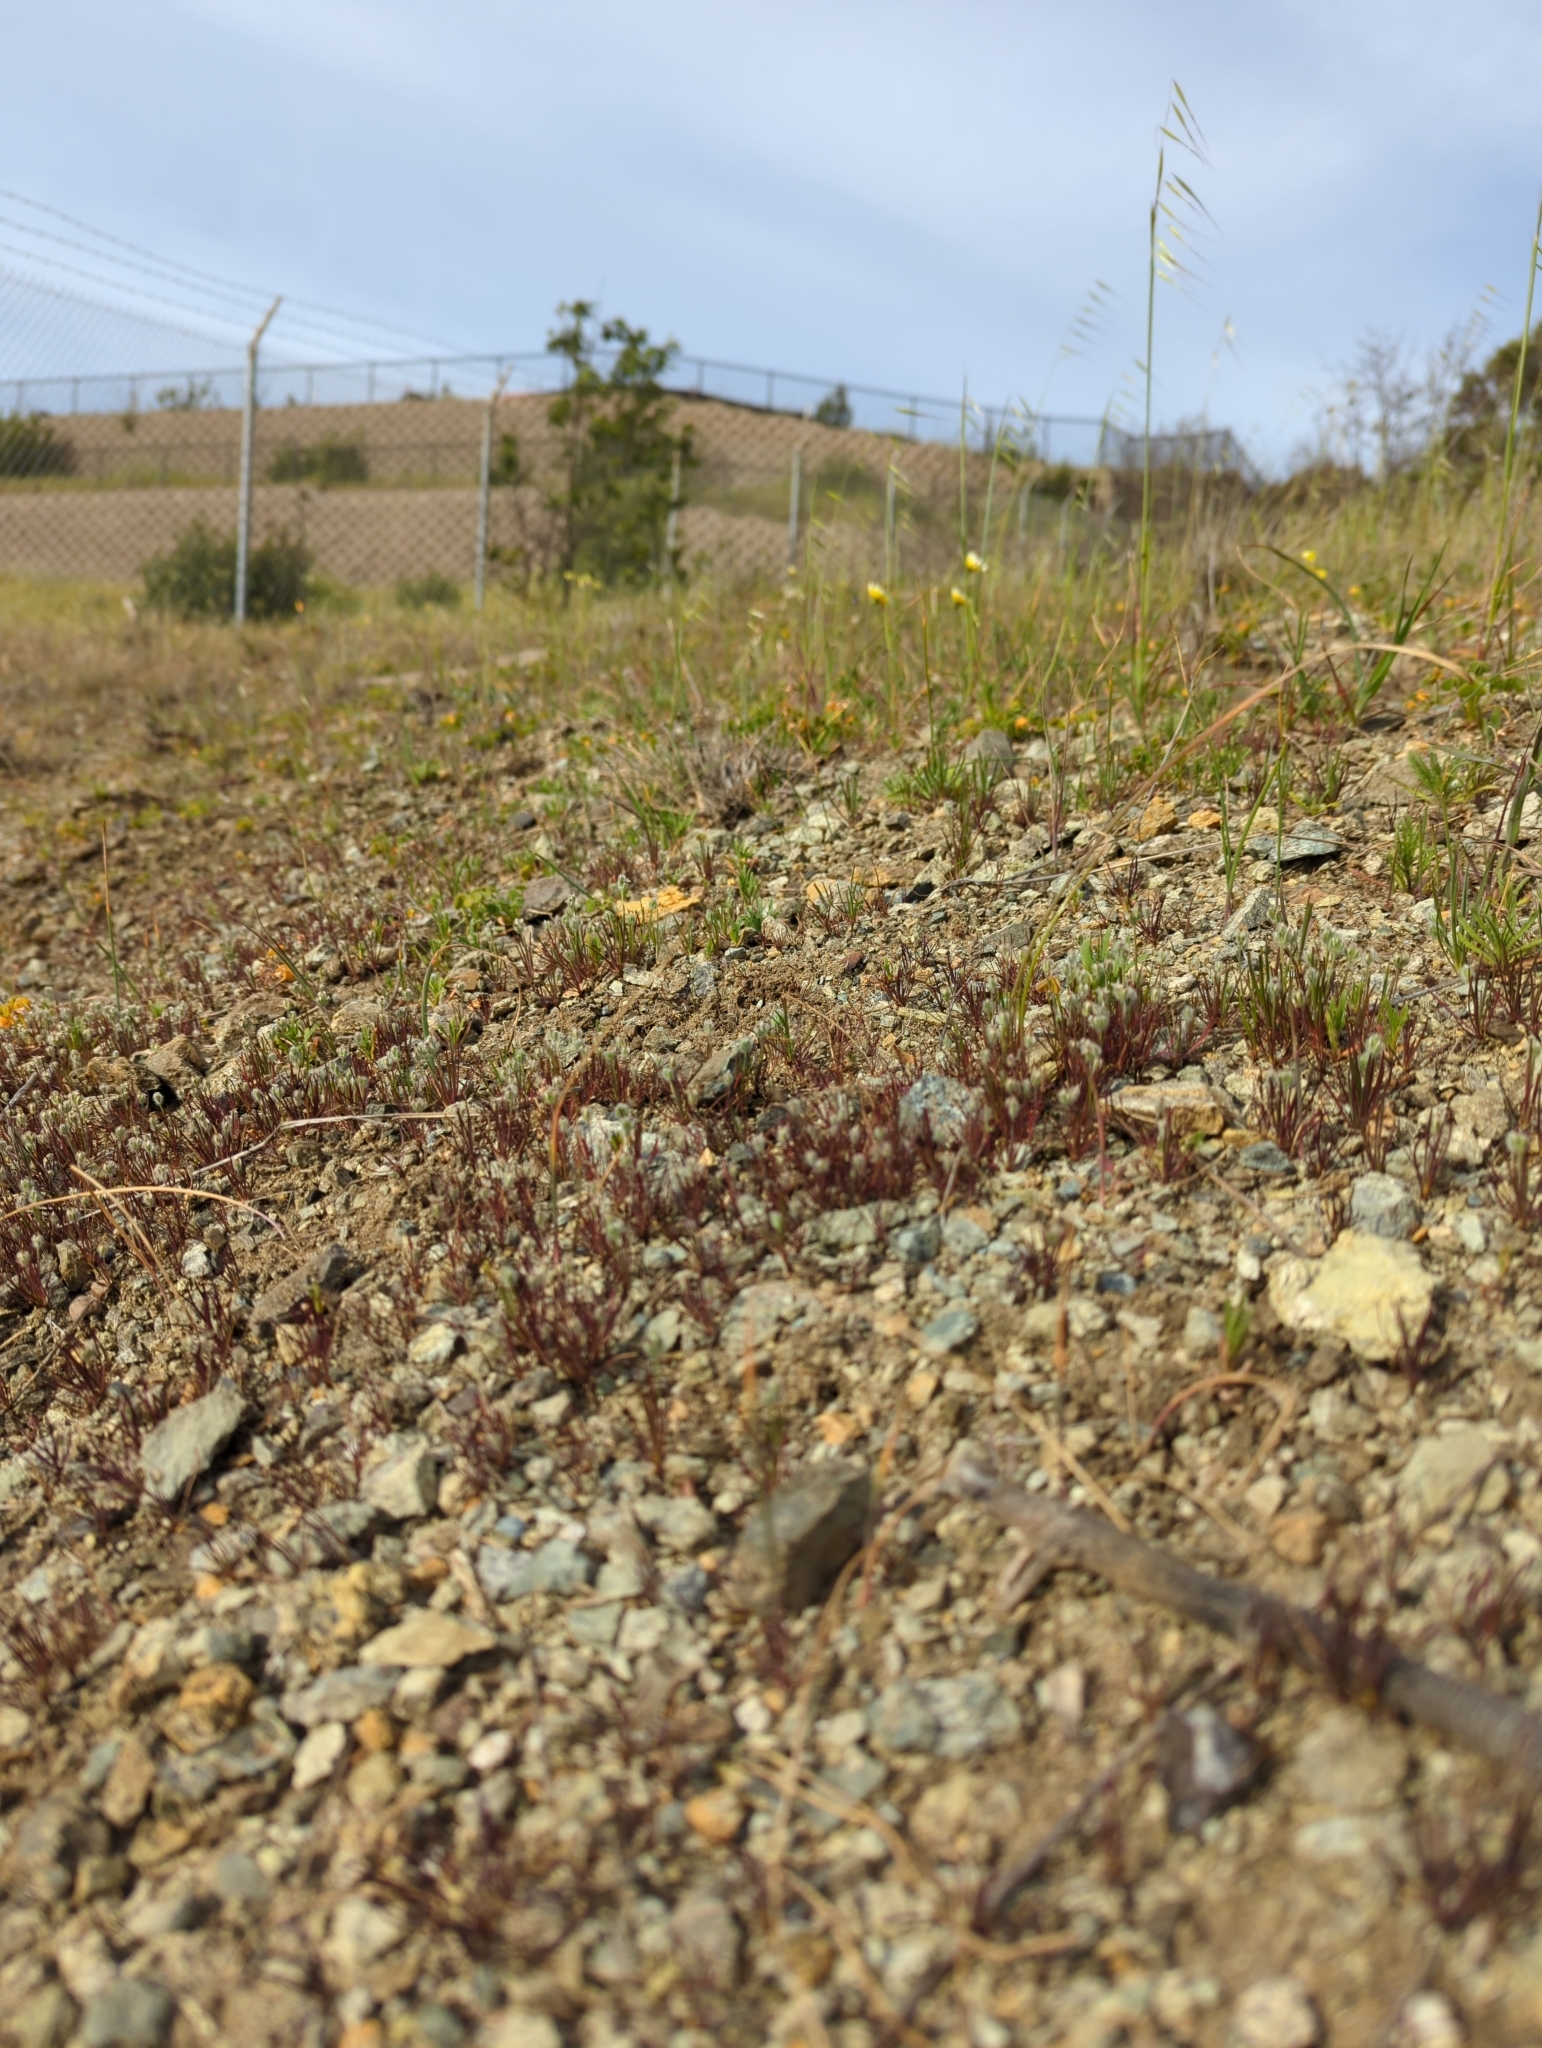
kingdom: Plantae
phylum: Tracheophyta
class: Magnoliopsida
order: Lamiales
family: Plantaginaceae
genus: Plantago
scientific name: Plantago erecta
